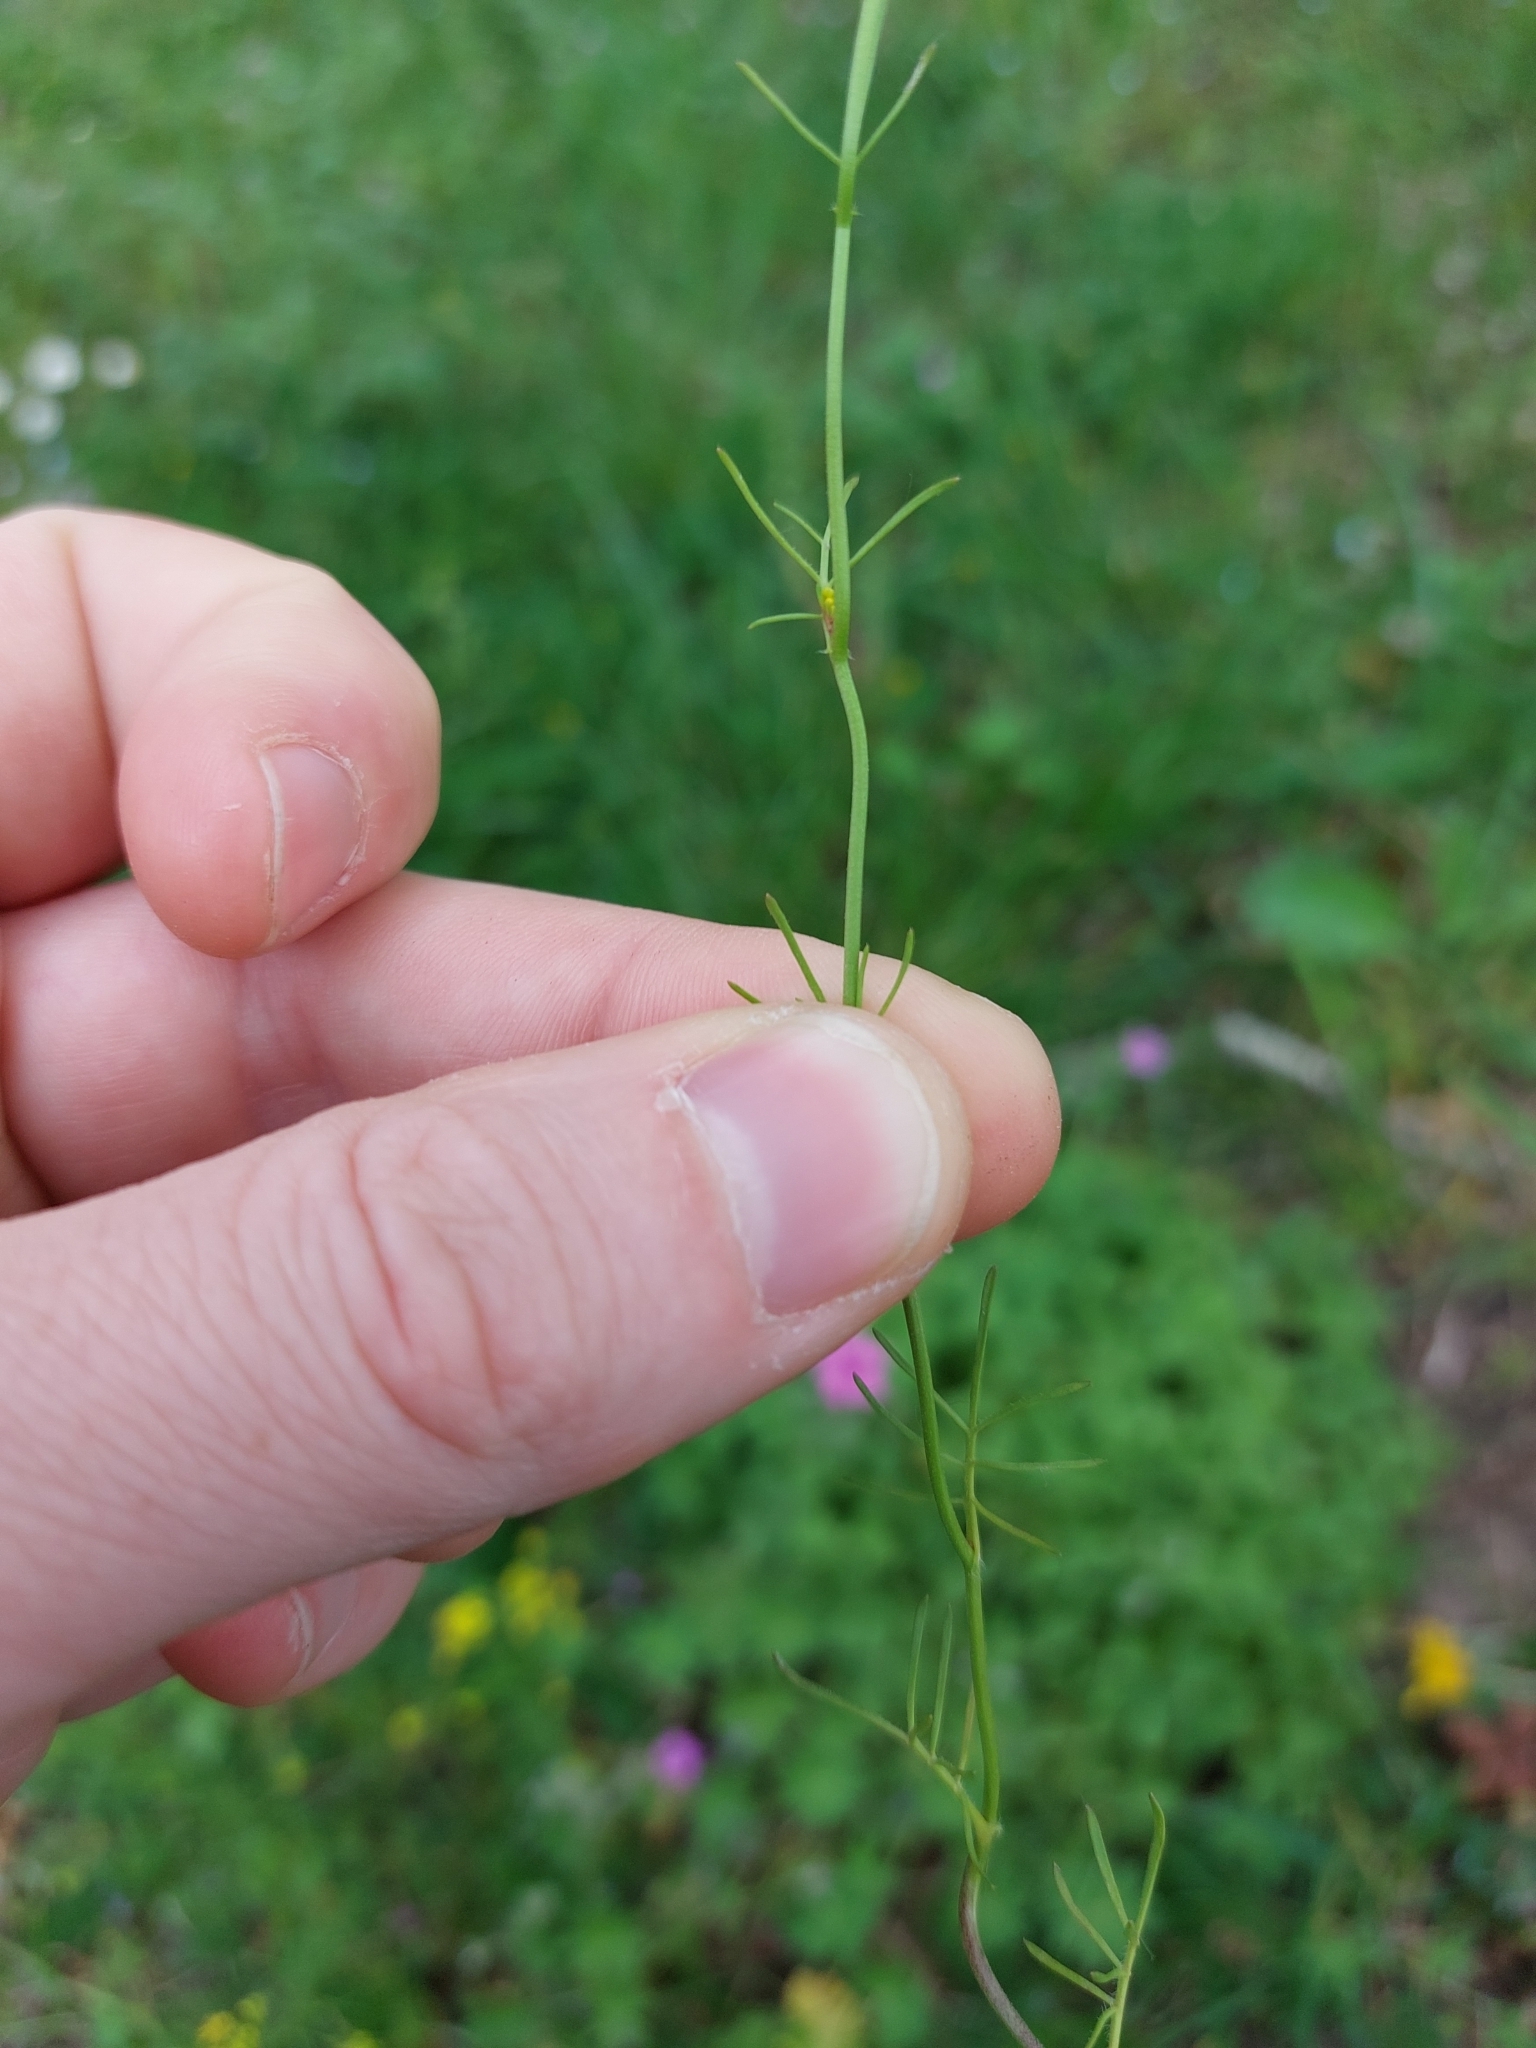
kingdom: Plantae
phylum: Tracheophyta
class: Magnoliopsida
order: Brassicales
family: Brassicaceae
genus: Rorippa
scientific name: Rorippa pyrenaica
